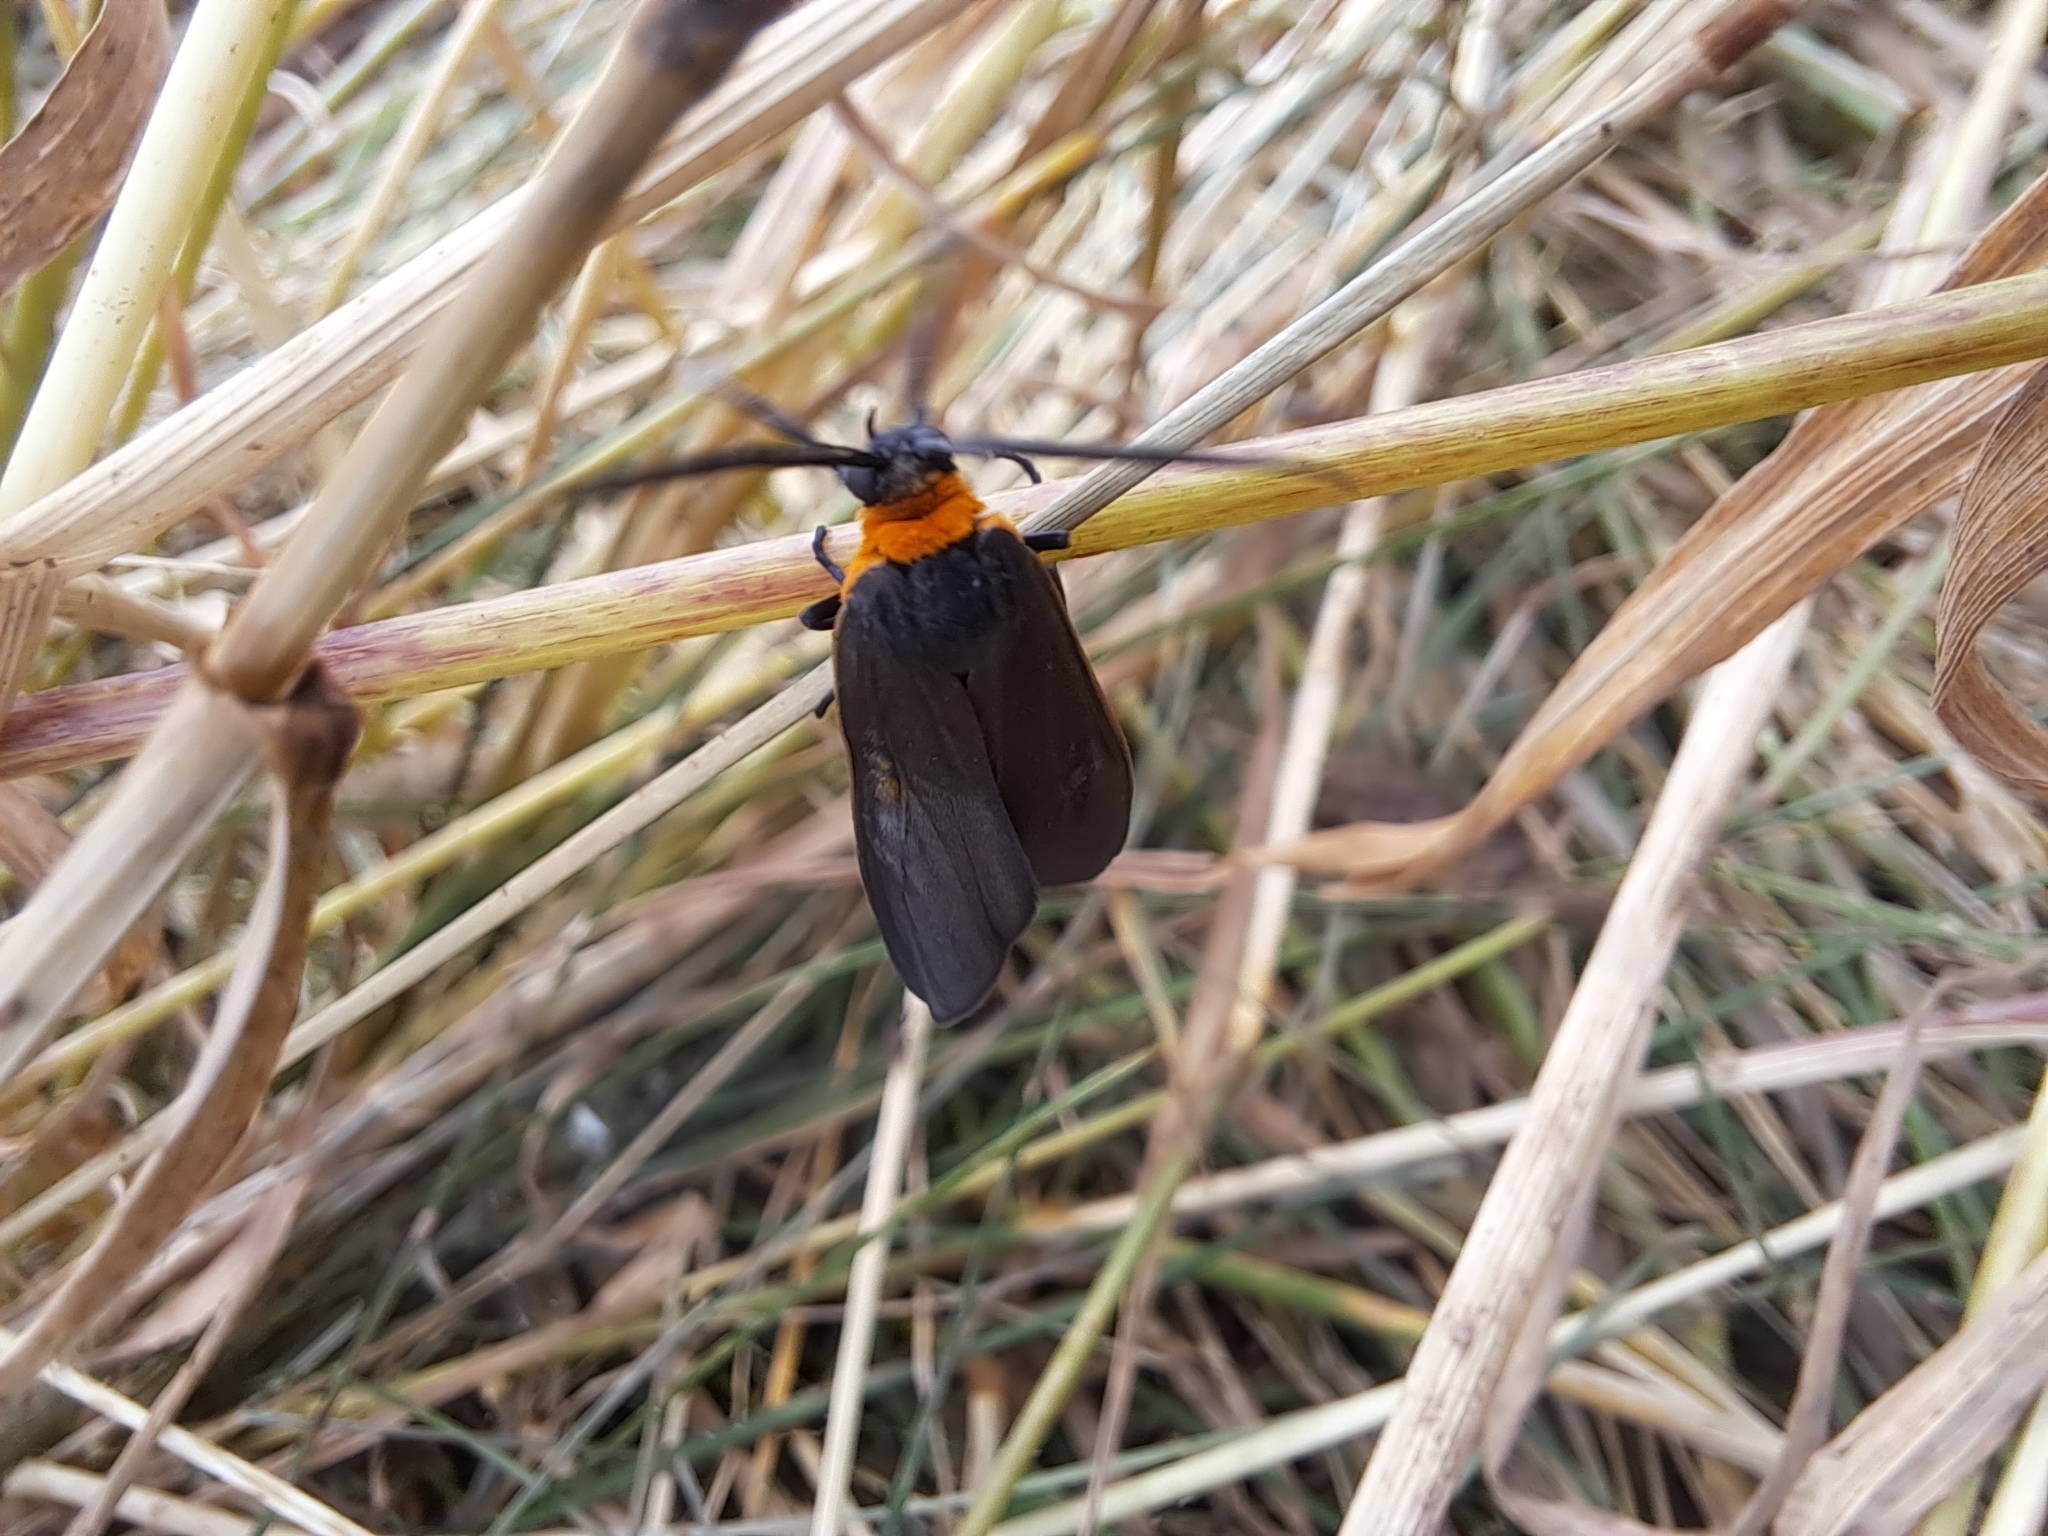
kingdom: Animalia
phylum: Arthropoda
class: Insecta
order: Lepidoptera
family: Erebidae
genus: Cisseps
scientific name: Cisseps fulvicollis
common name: Yellow-collared scape moth
